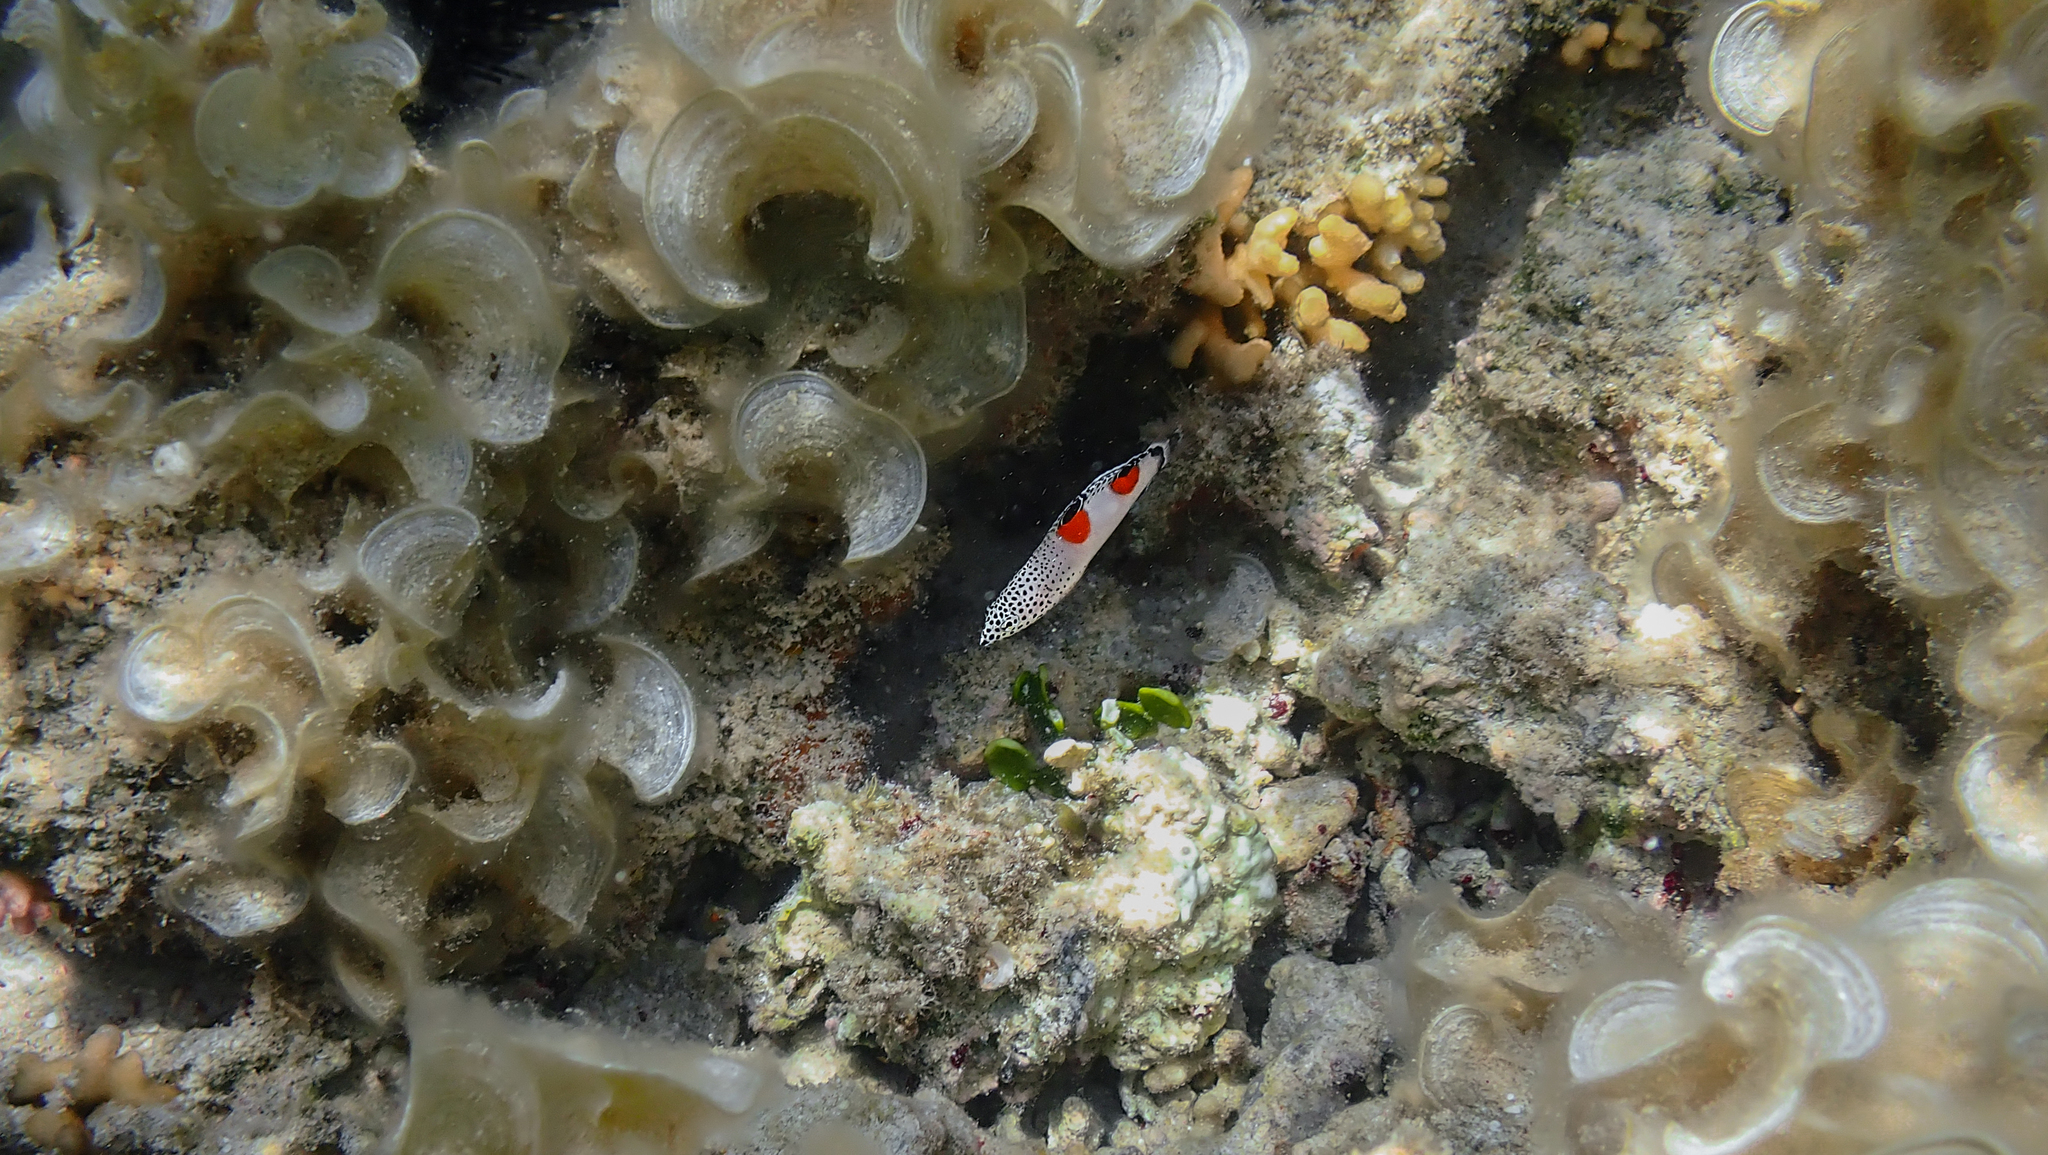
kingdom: Animalia
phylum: Chordata
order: Perciformes
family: Labridae
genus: Coris
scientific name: Coris aygula
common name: Clown coris
